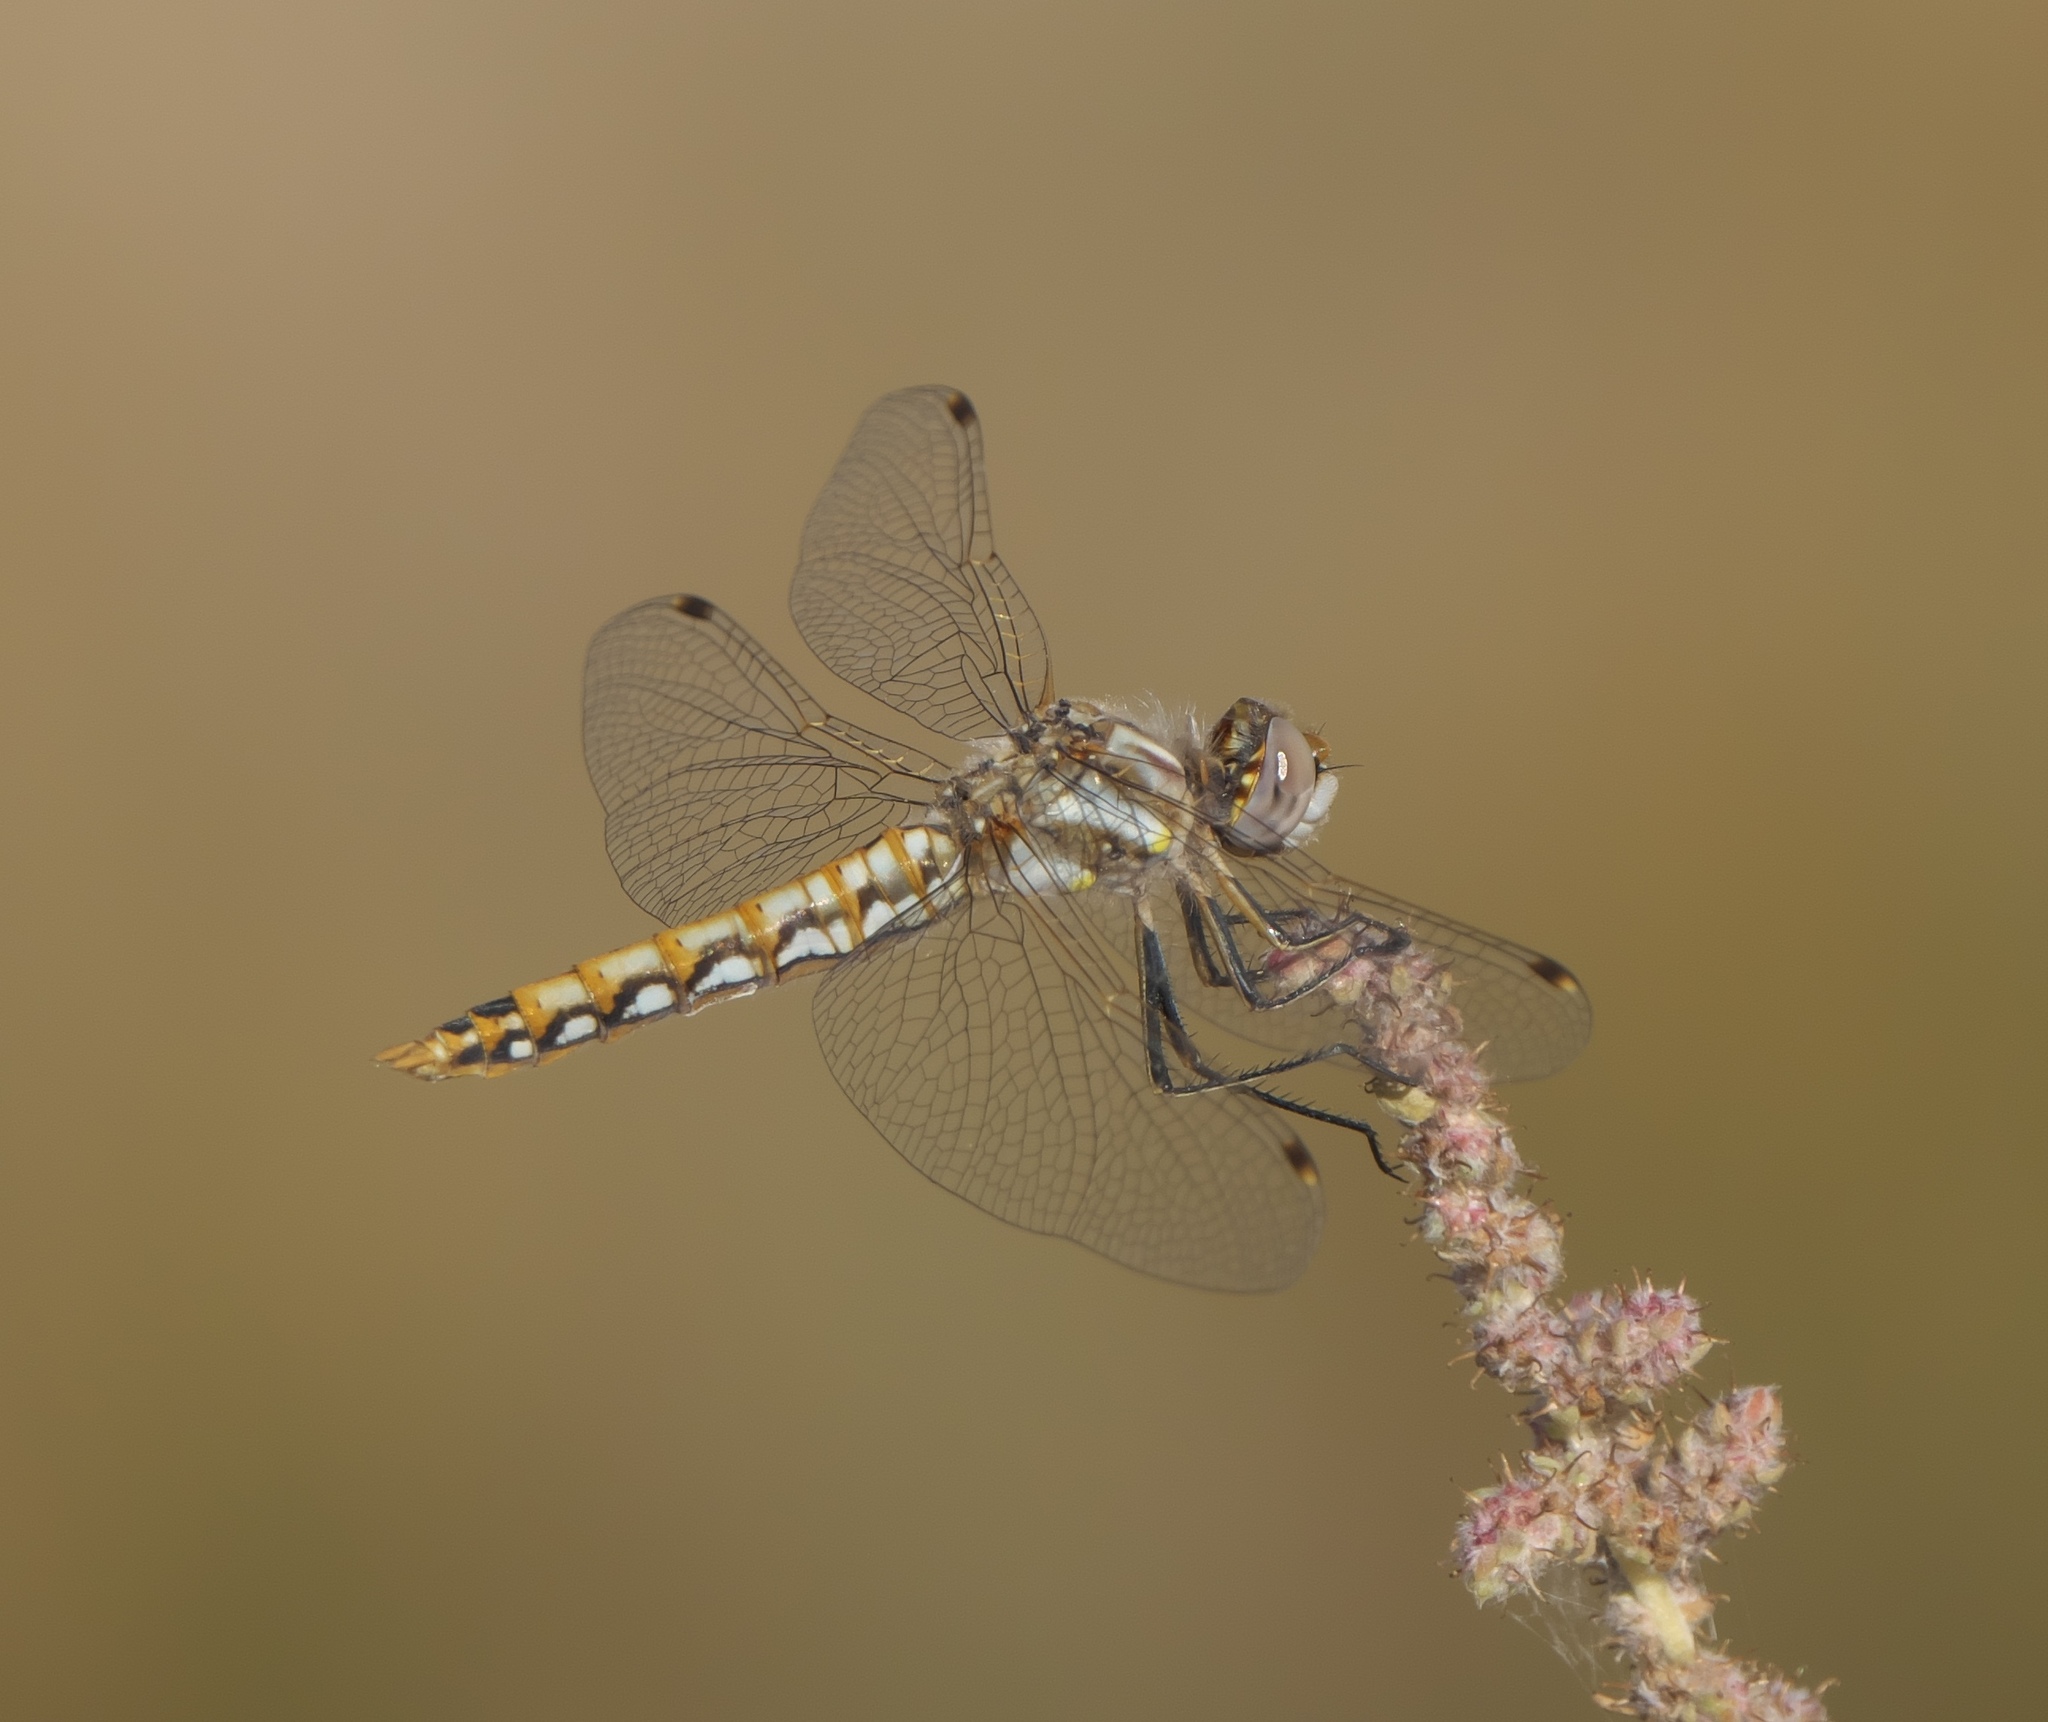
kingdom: Animalia
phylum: Arthropoda
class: Insecta
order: Odonata
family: Libellulidae
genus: Sympetrum
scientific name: Sympetrum corruptum
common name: Variegated meadowhawk
